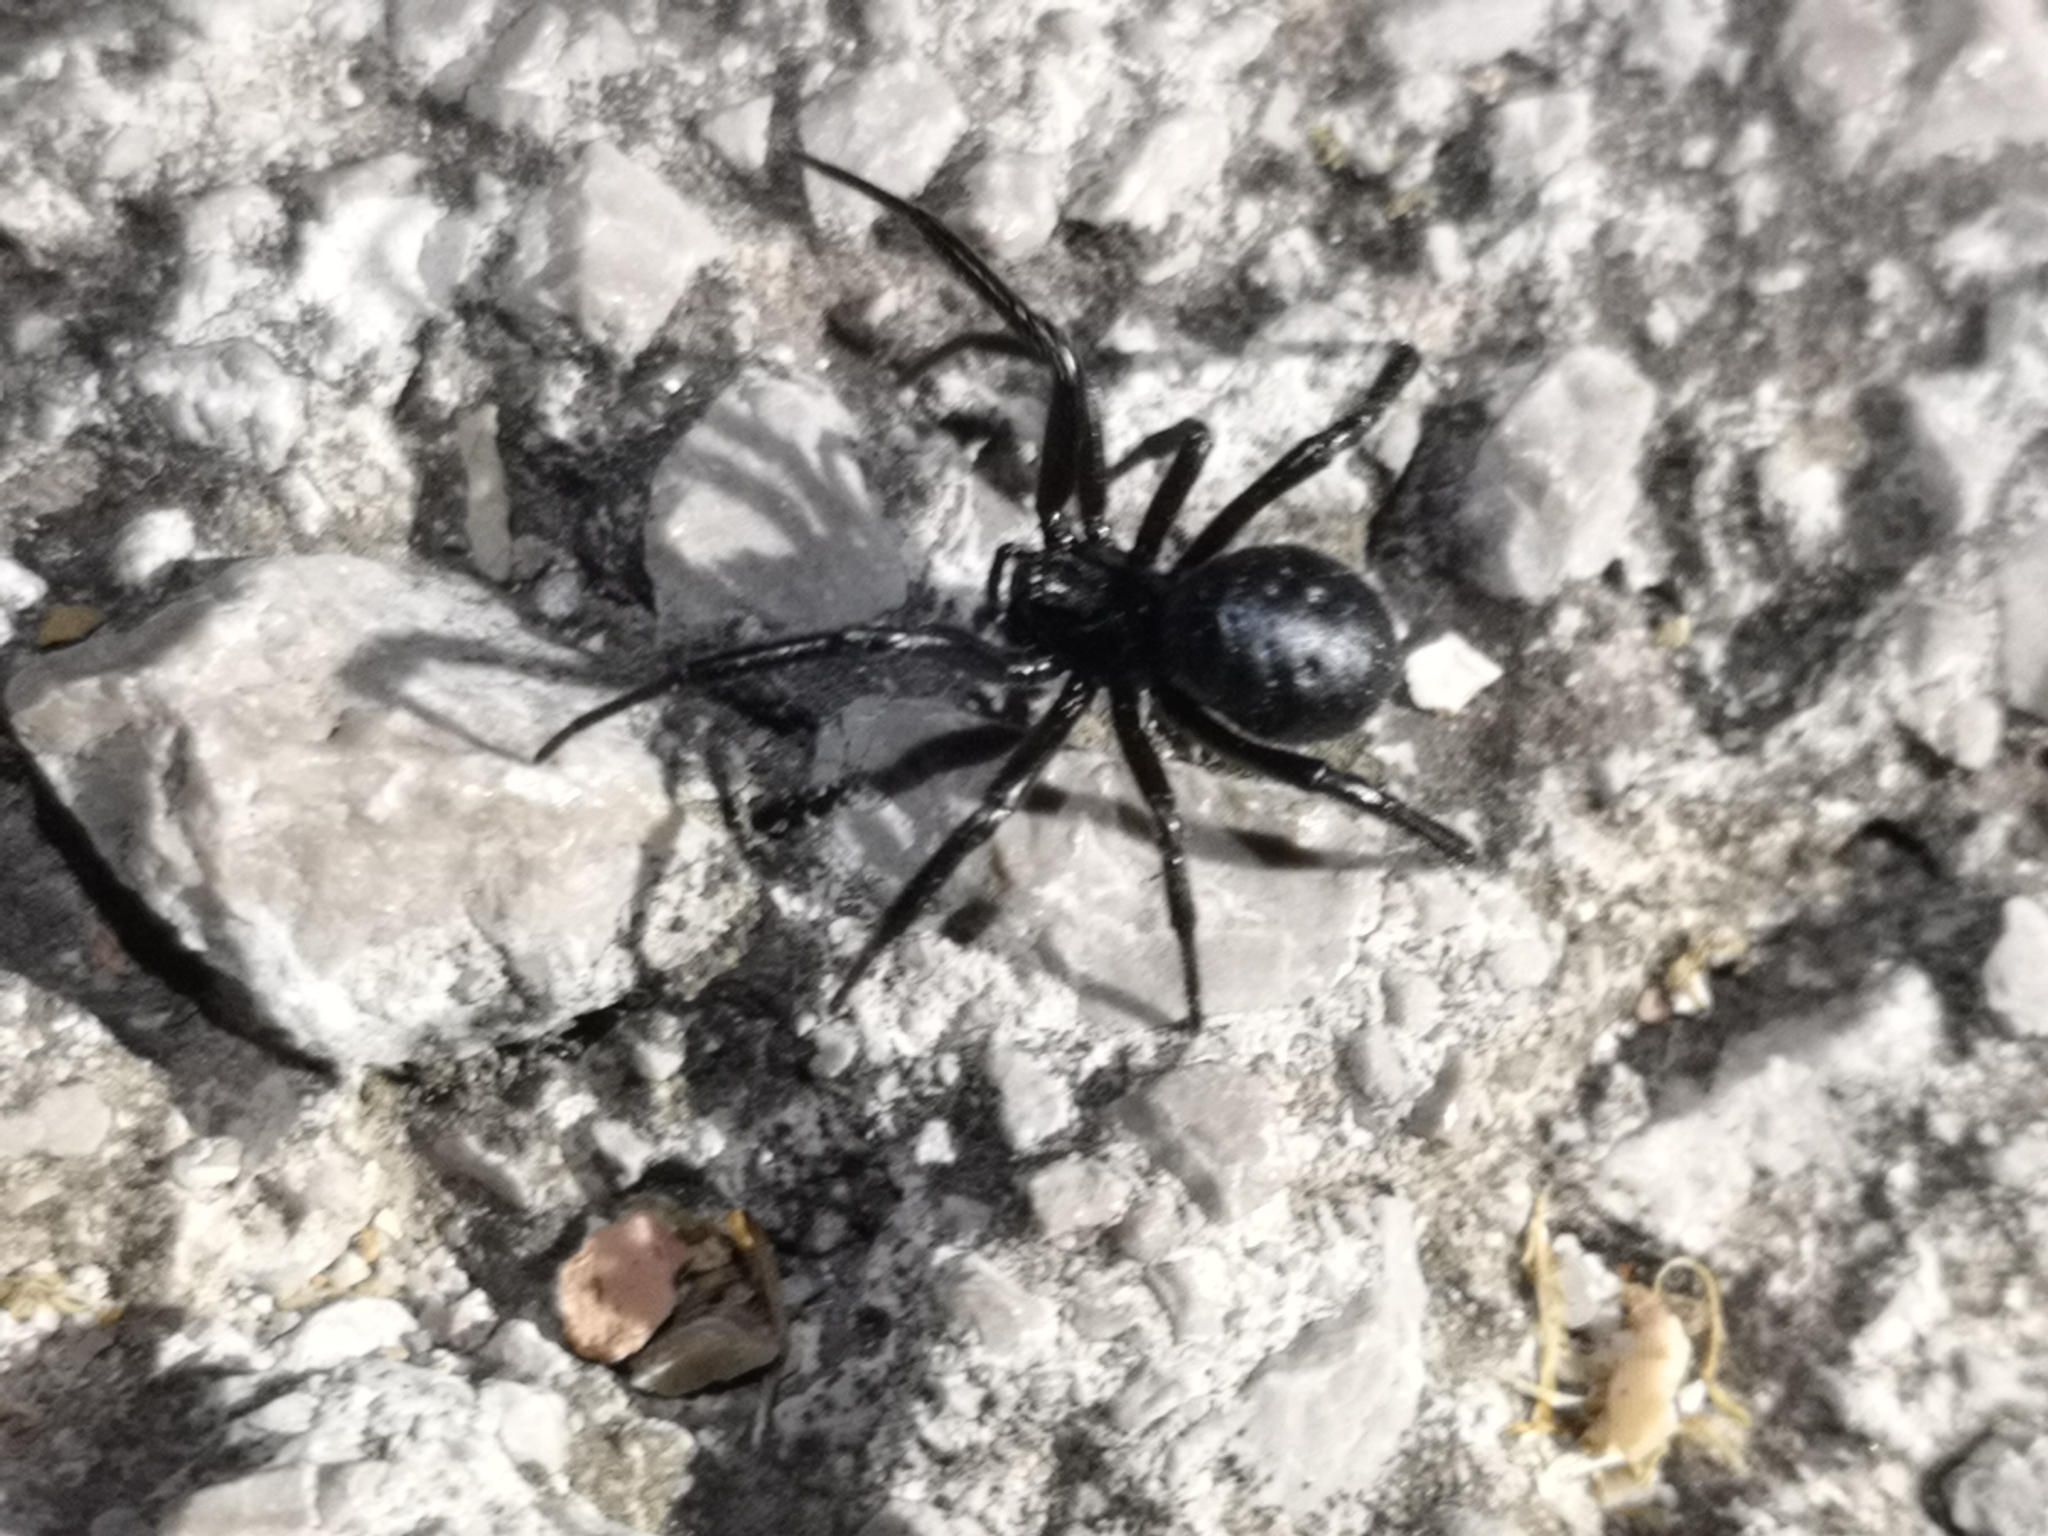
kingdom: Animalia
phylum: Arthropoda
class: Arachnida
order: Araneae
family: Theridiidae
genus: Steatoda
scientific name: Steatoda paykulliana
